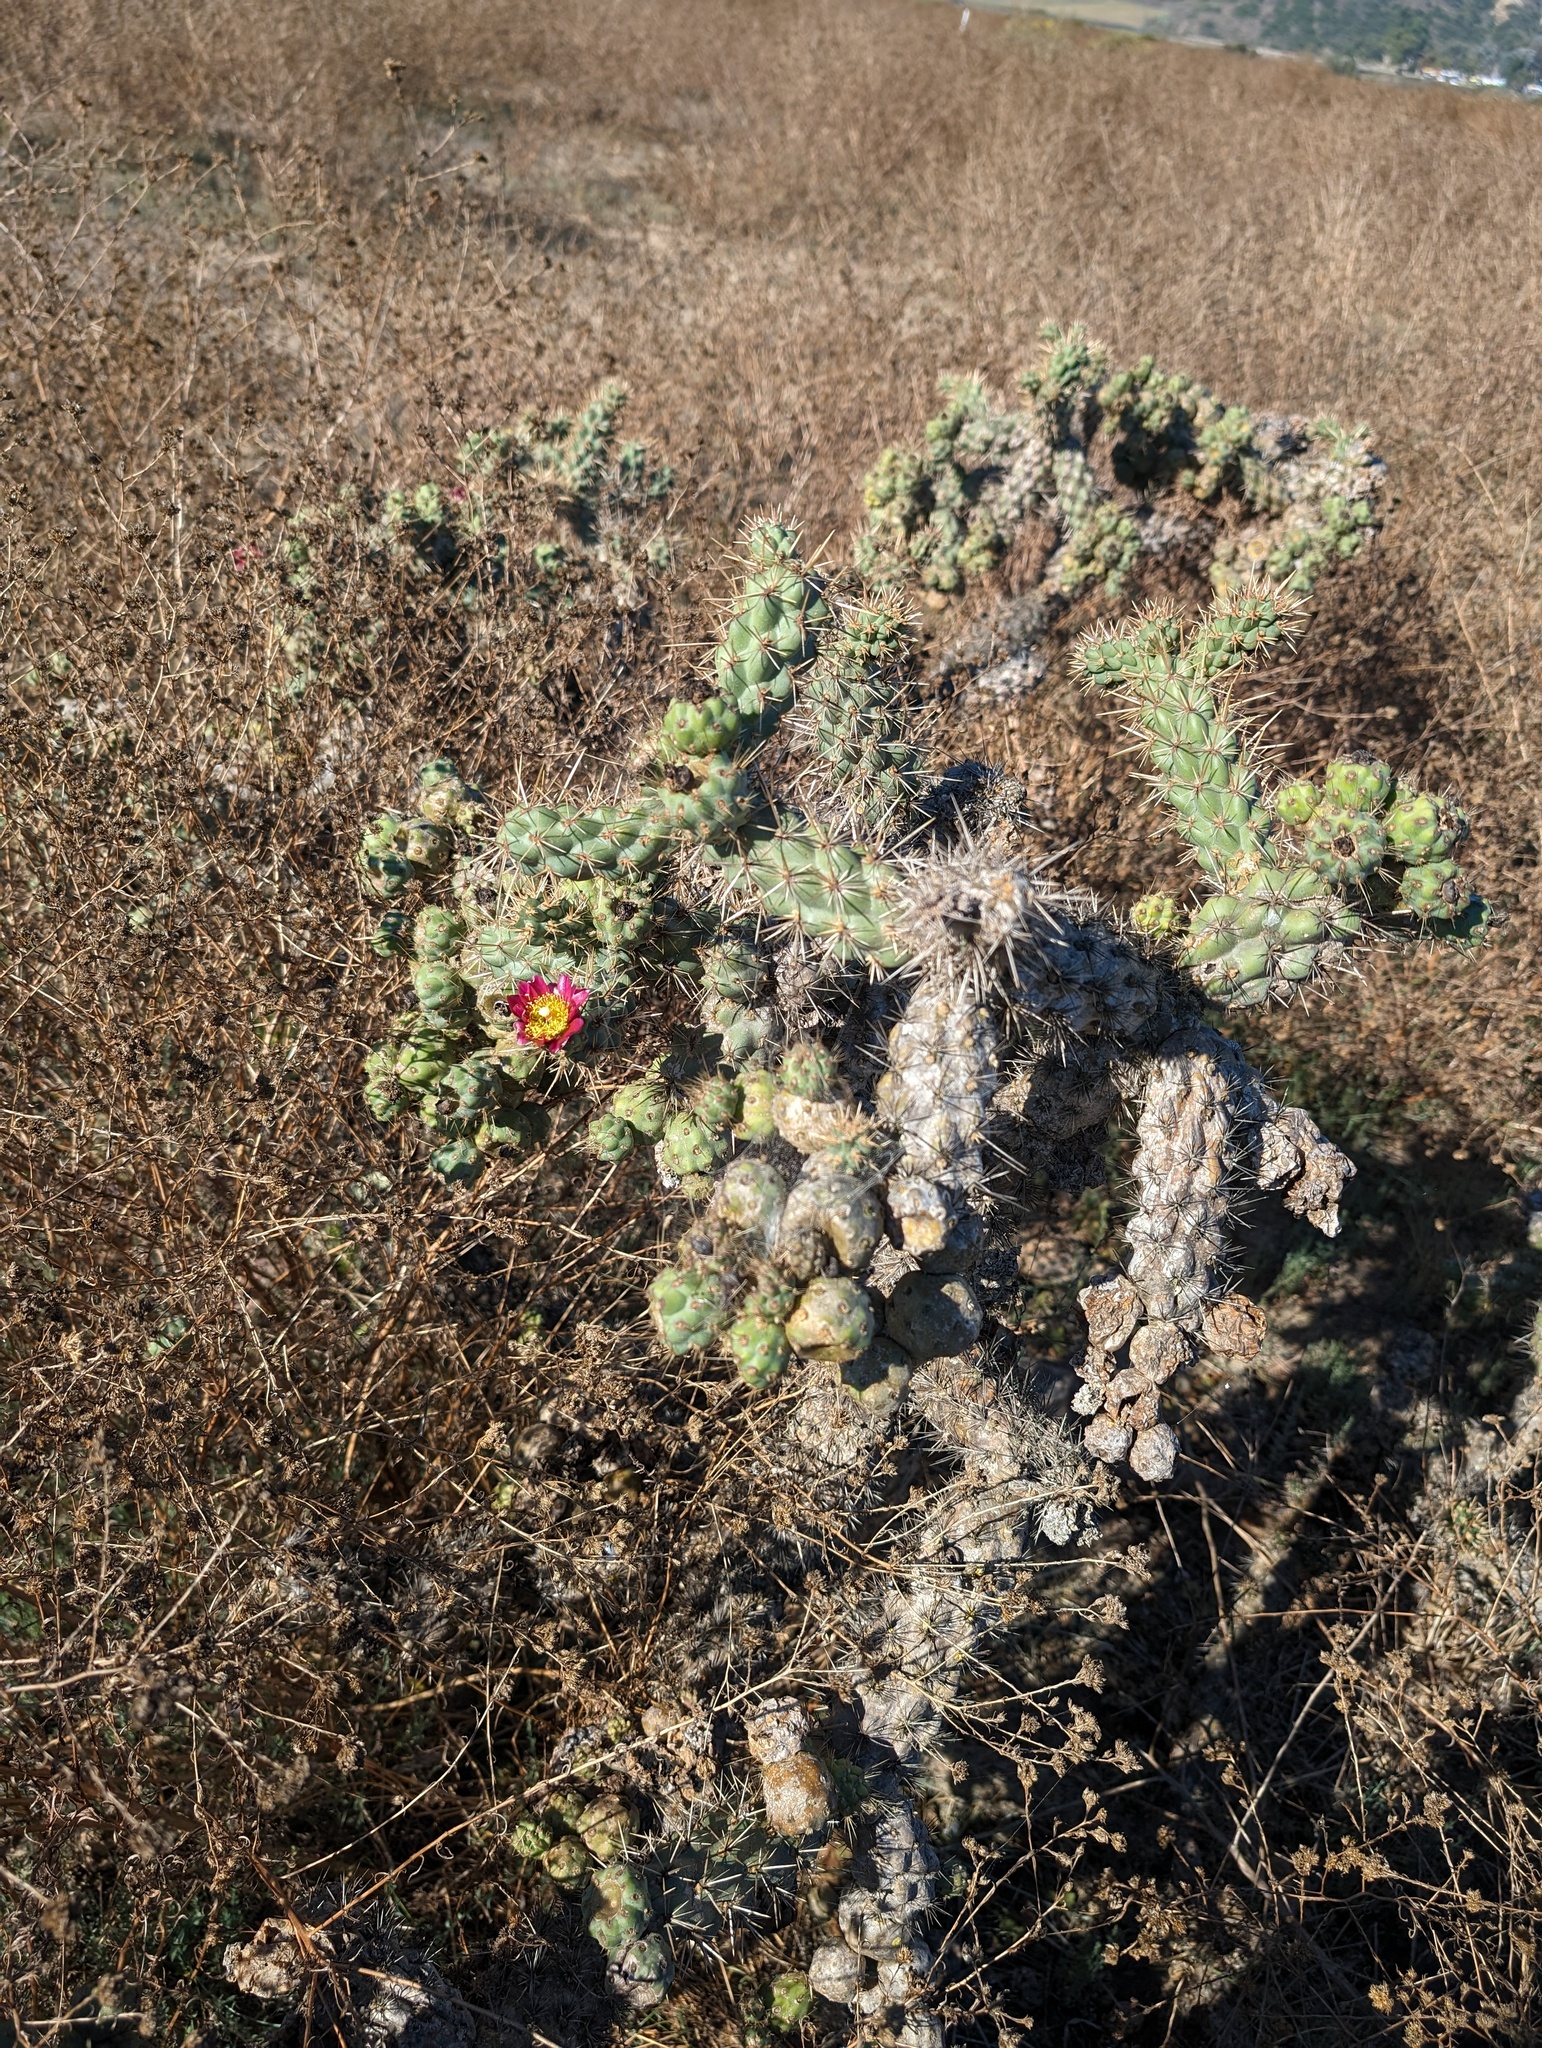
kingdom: Plantae
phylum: Tracheophyta
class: Magnoliopsida
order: Caryophyllales
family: Cactaceae
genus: Cylindropuntia
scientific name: Cylindropuntia prolifera
